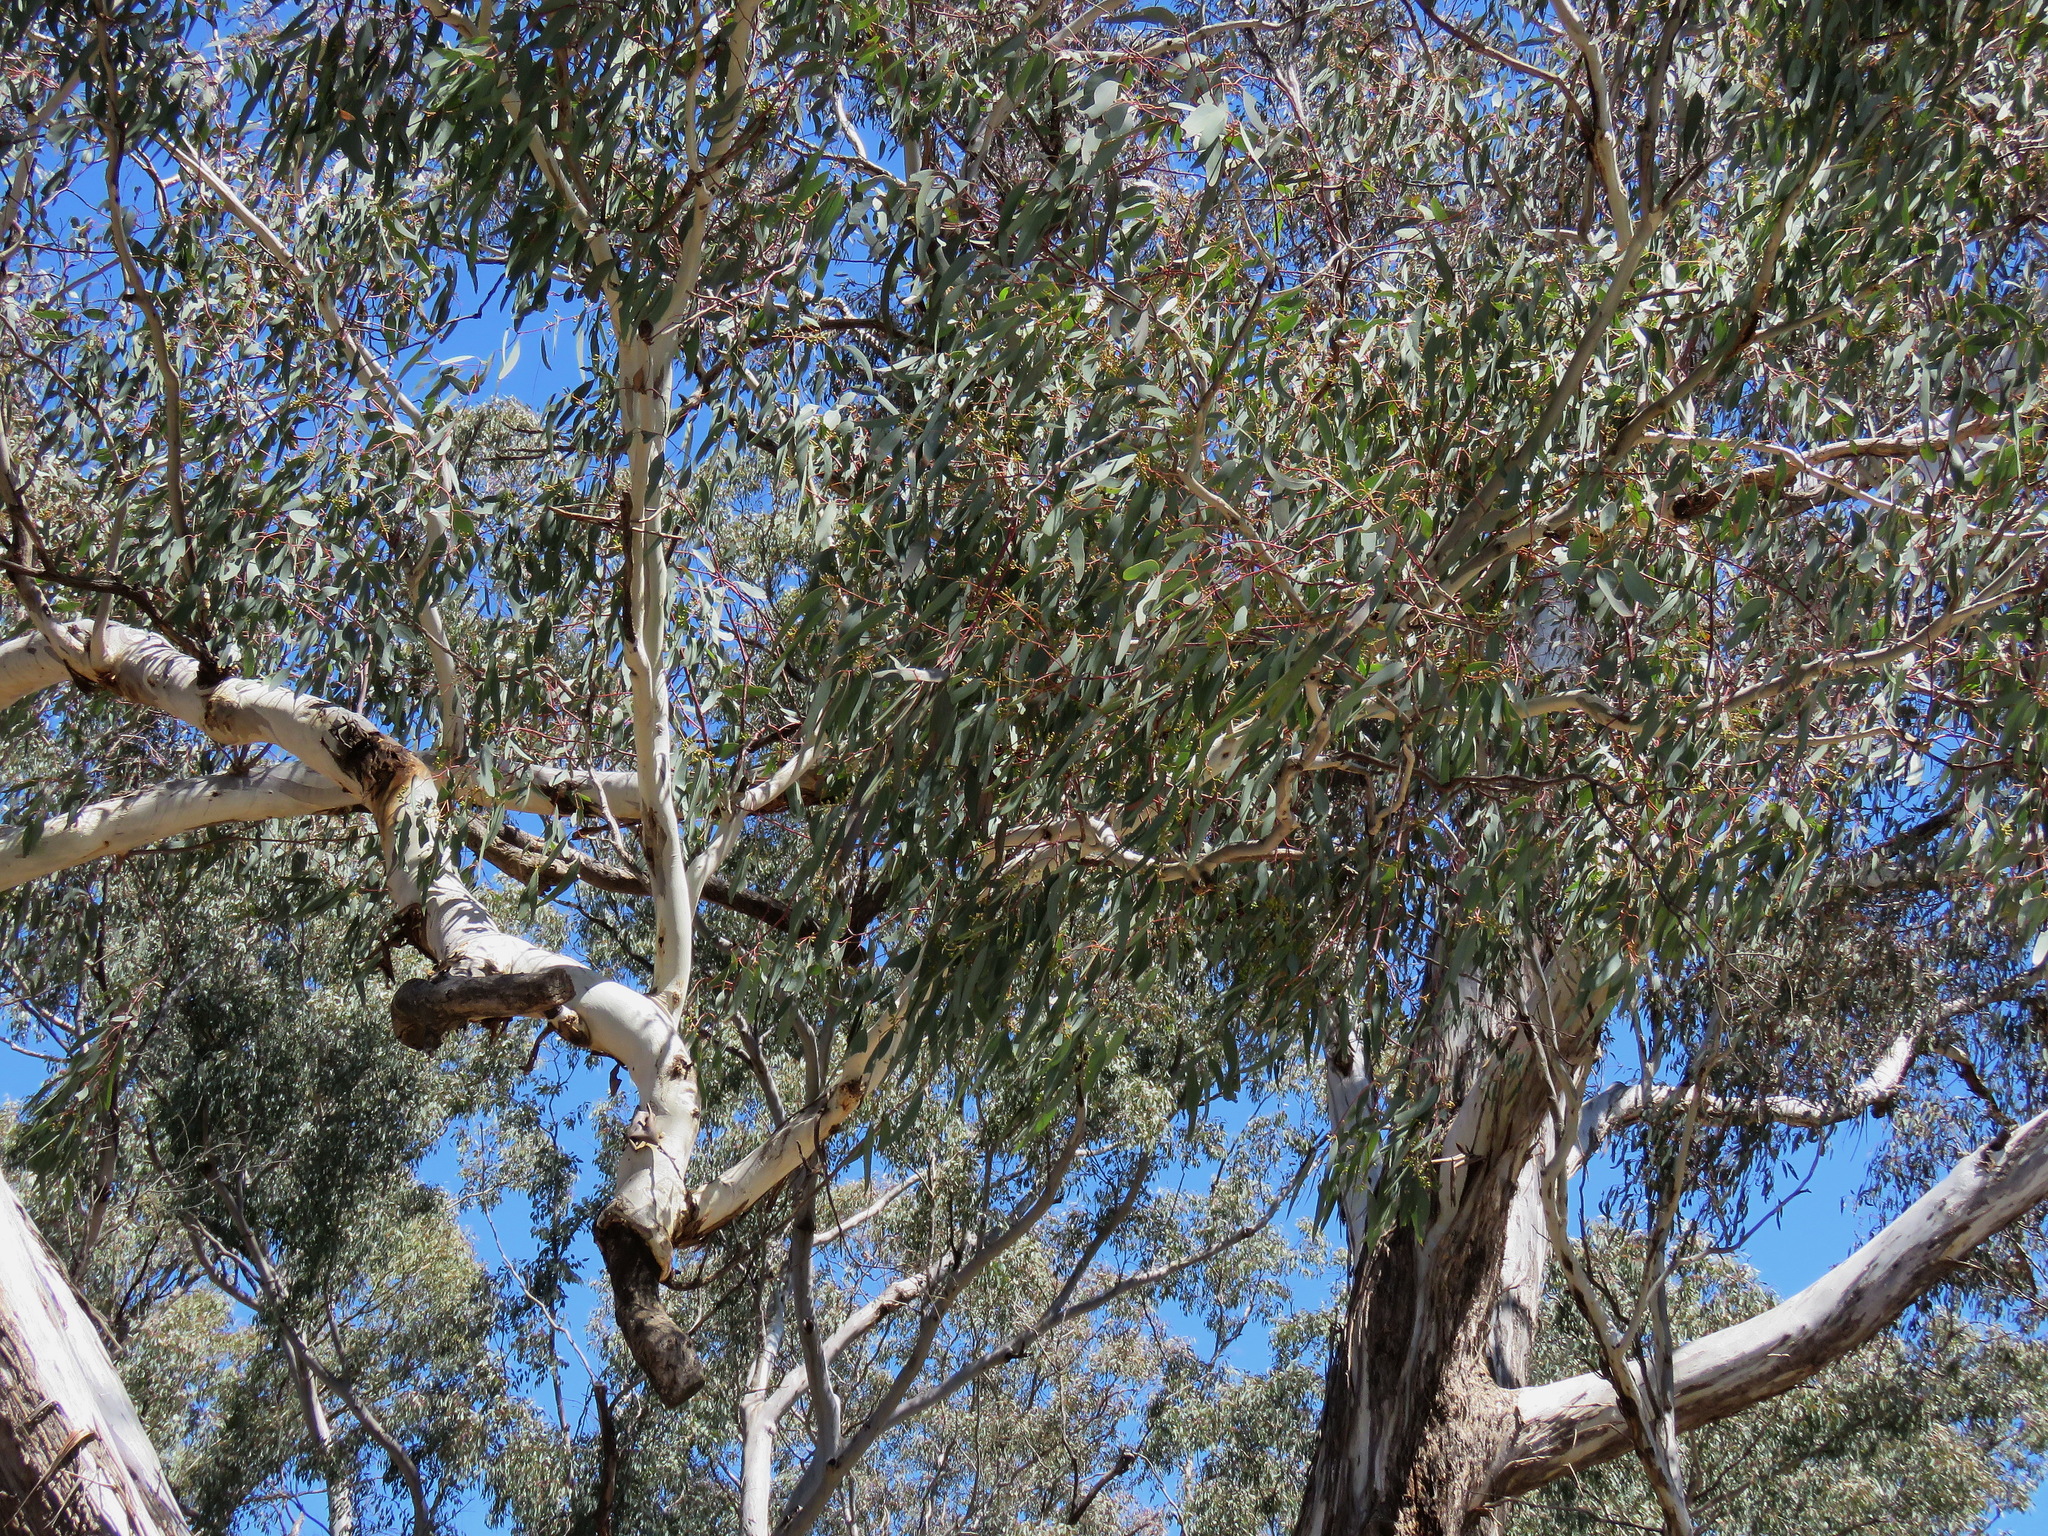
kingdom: Plantae
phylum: Tracheophyta
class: Magnoliopsida
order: Myrtales
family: Myrtaceae
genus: Eucalyptus
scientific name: Eucalyptus melliodora
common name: Yellow ironbox
